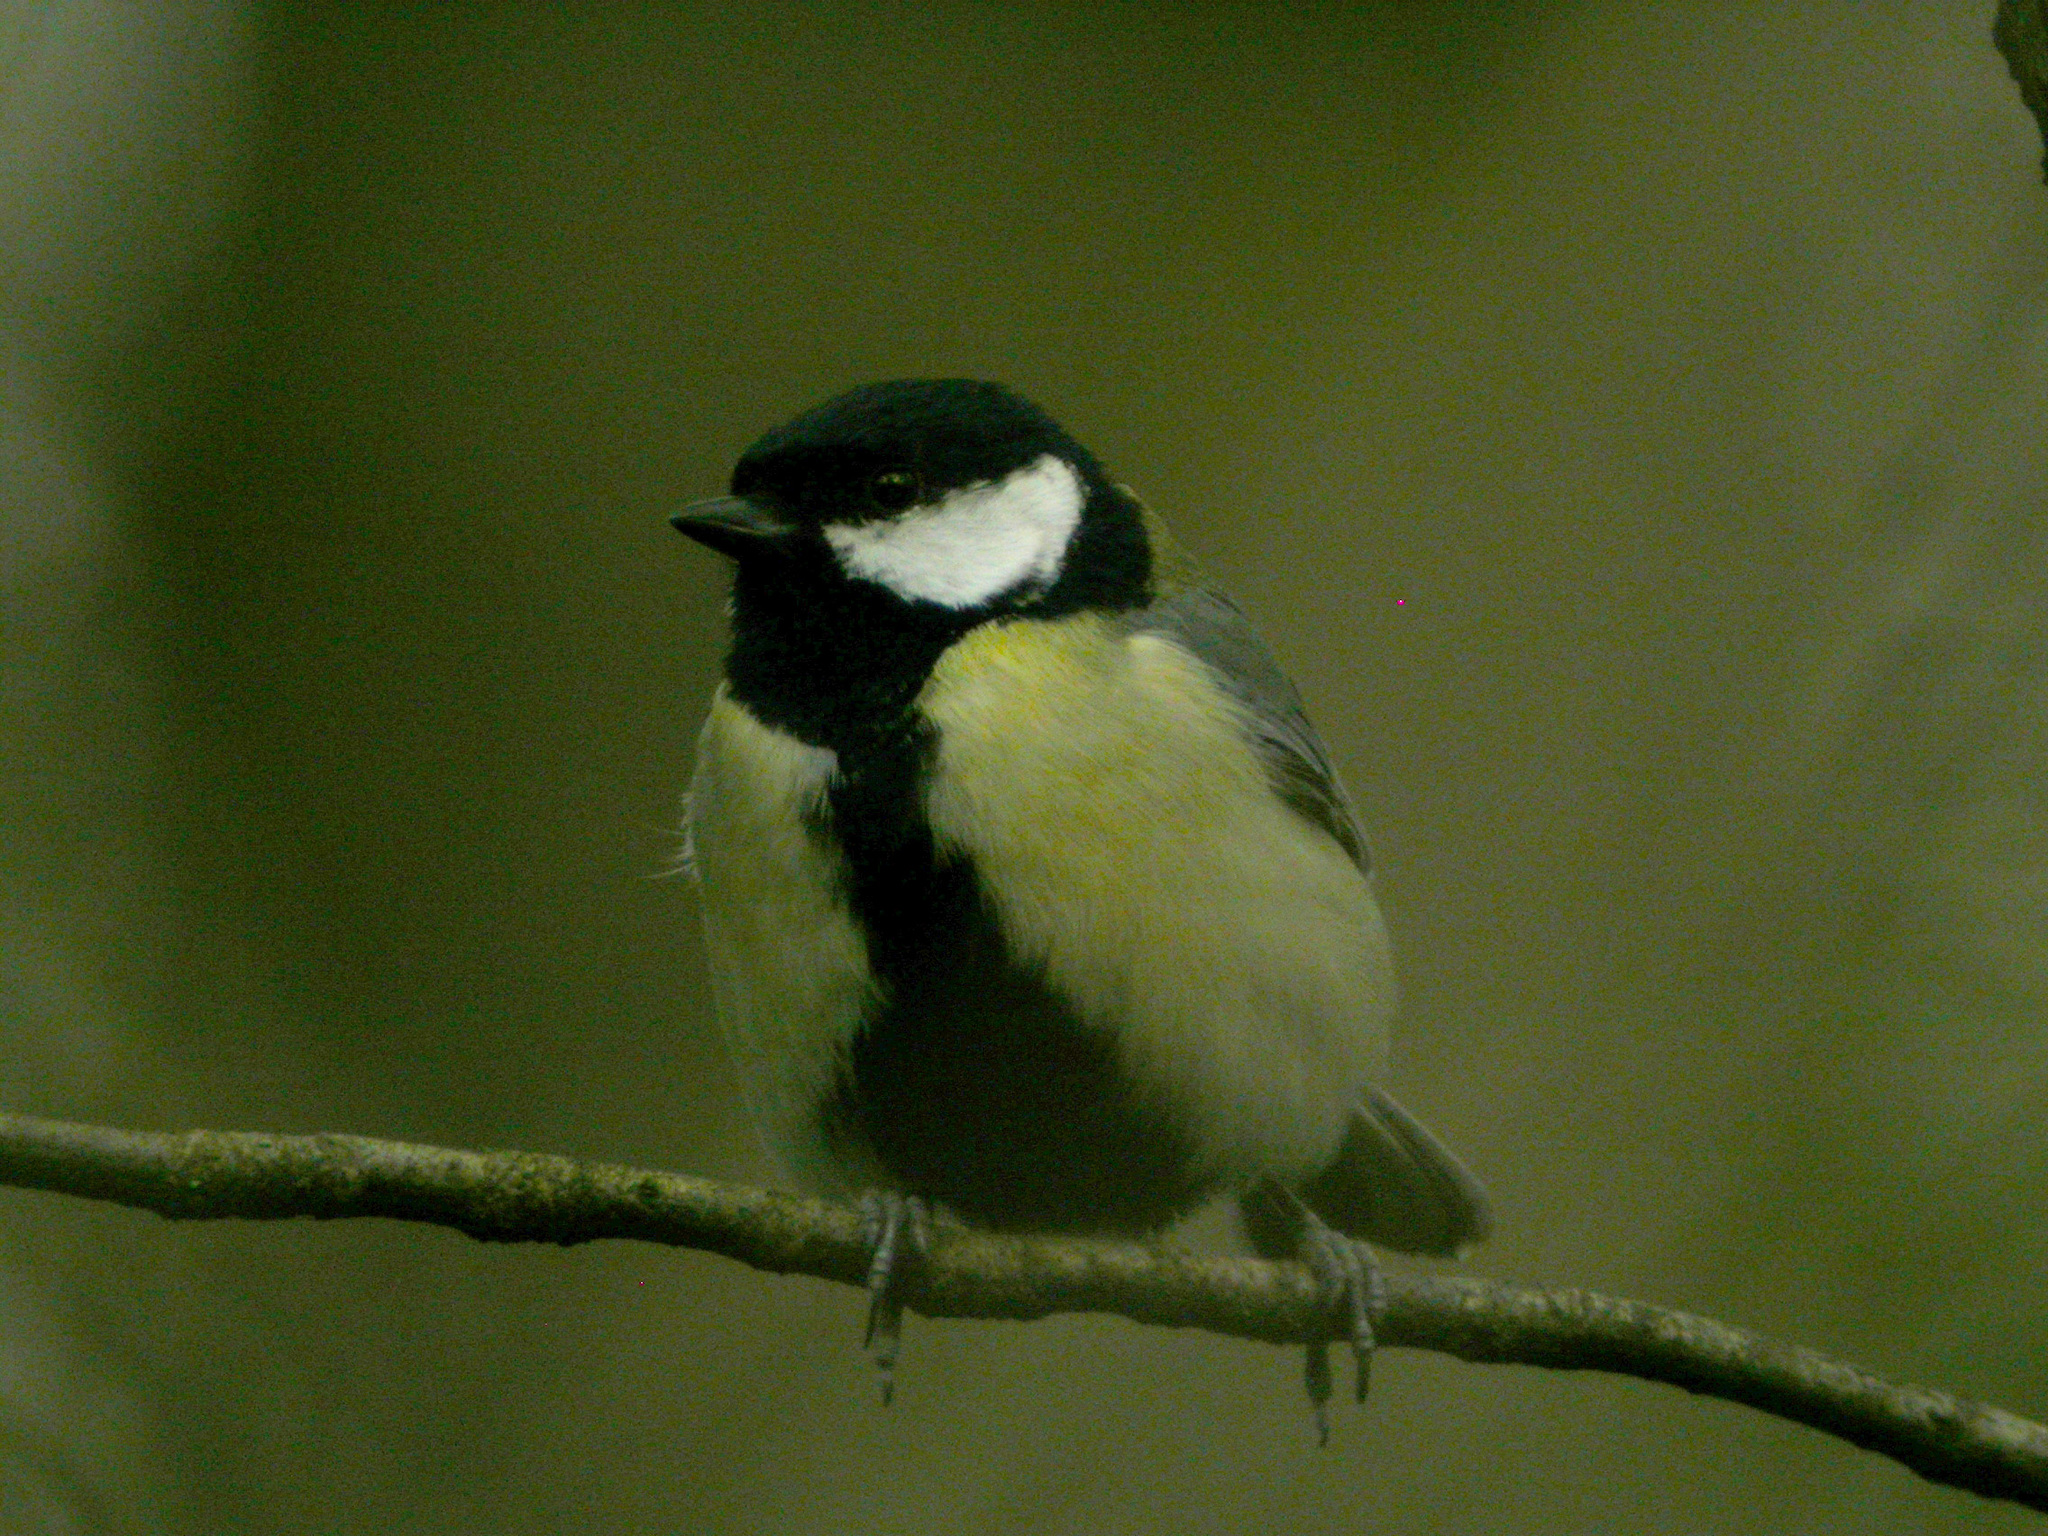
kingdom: Animalia
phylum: Chordata
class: Aves
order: Passeriformes
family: Paridae
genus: Parus
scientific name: Parus major
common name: Great tit
